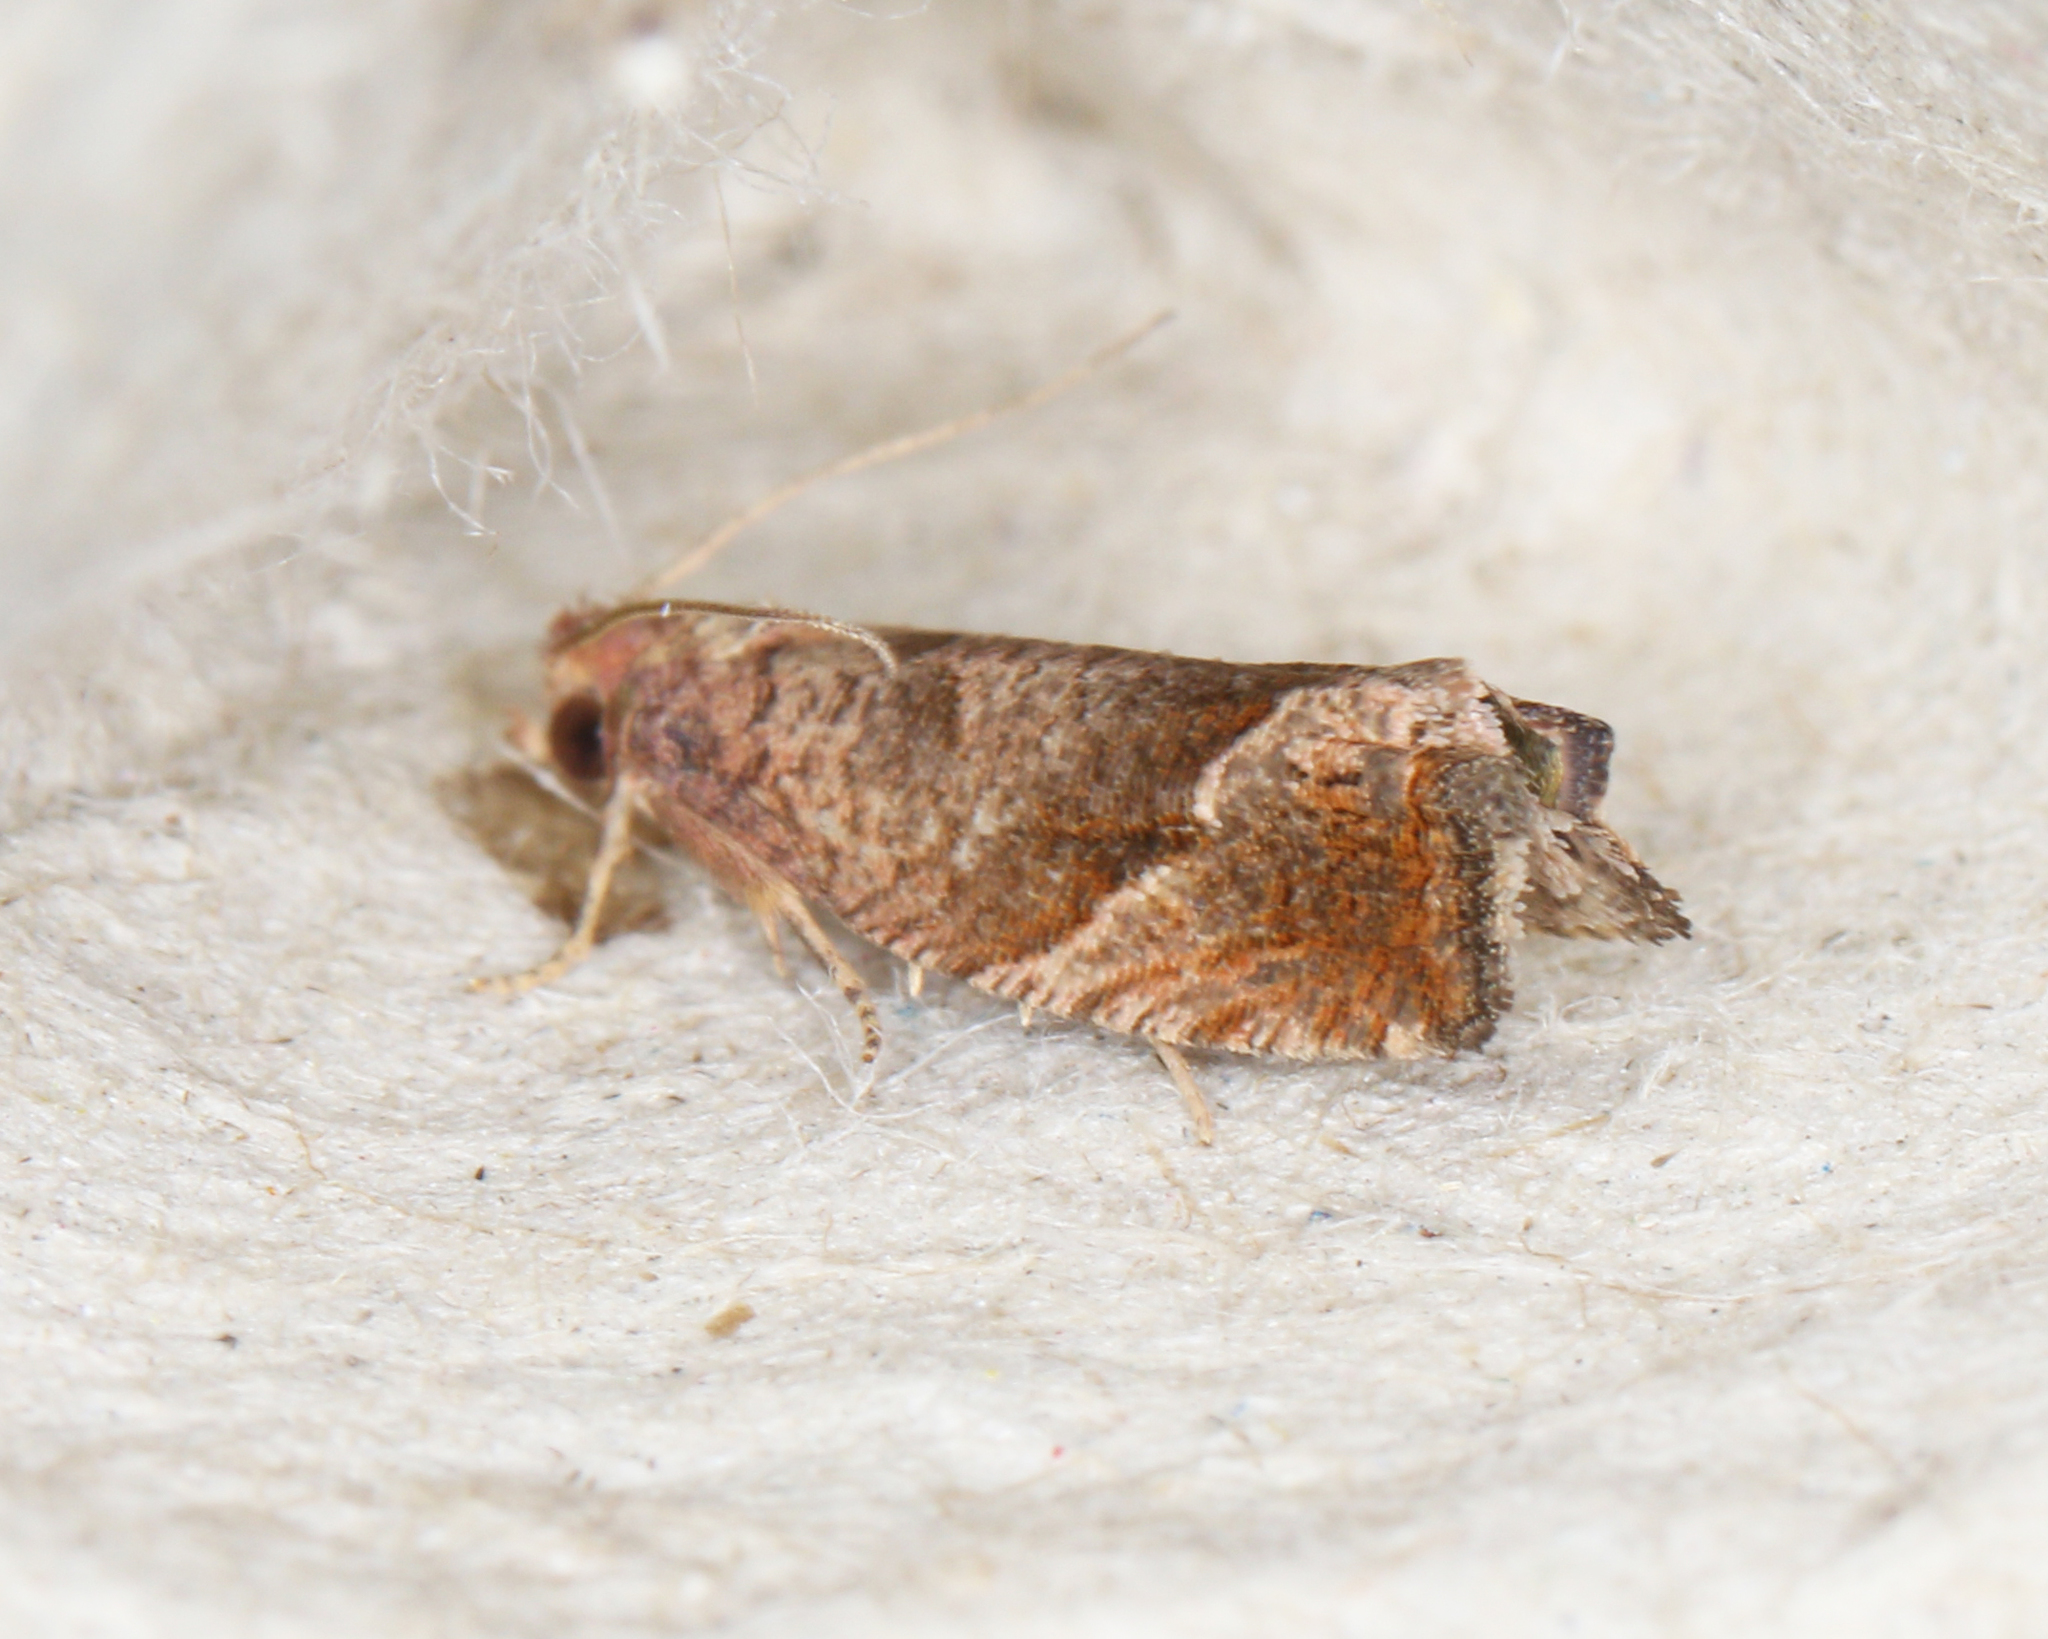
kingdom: Animalia
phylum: Arthropoda
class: Insecta
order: Lepidoptera
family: Tortricidae
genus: Pelochrista
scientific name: Pelochrista derelicta
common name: Derelict pelochrista moth
